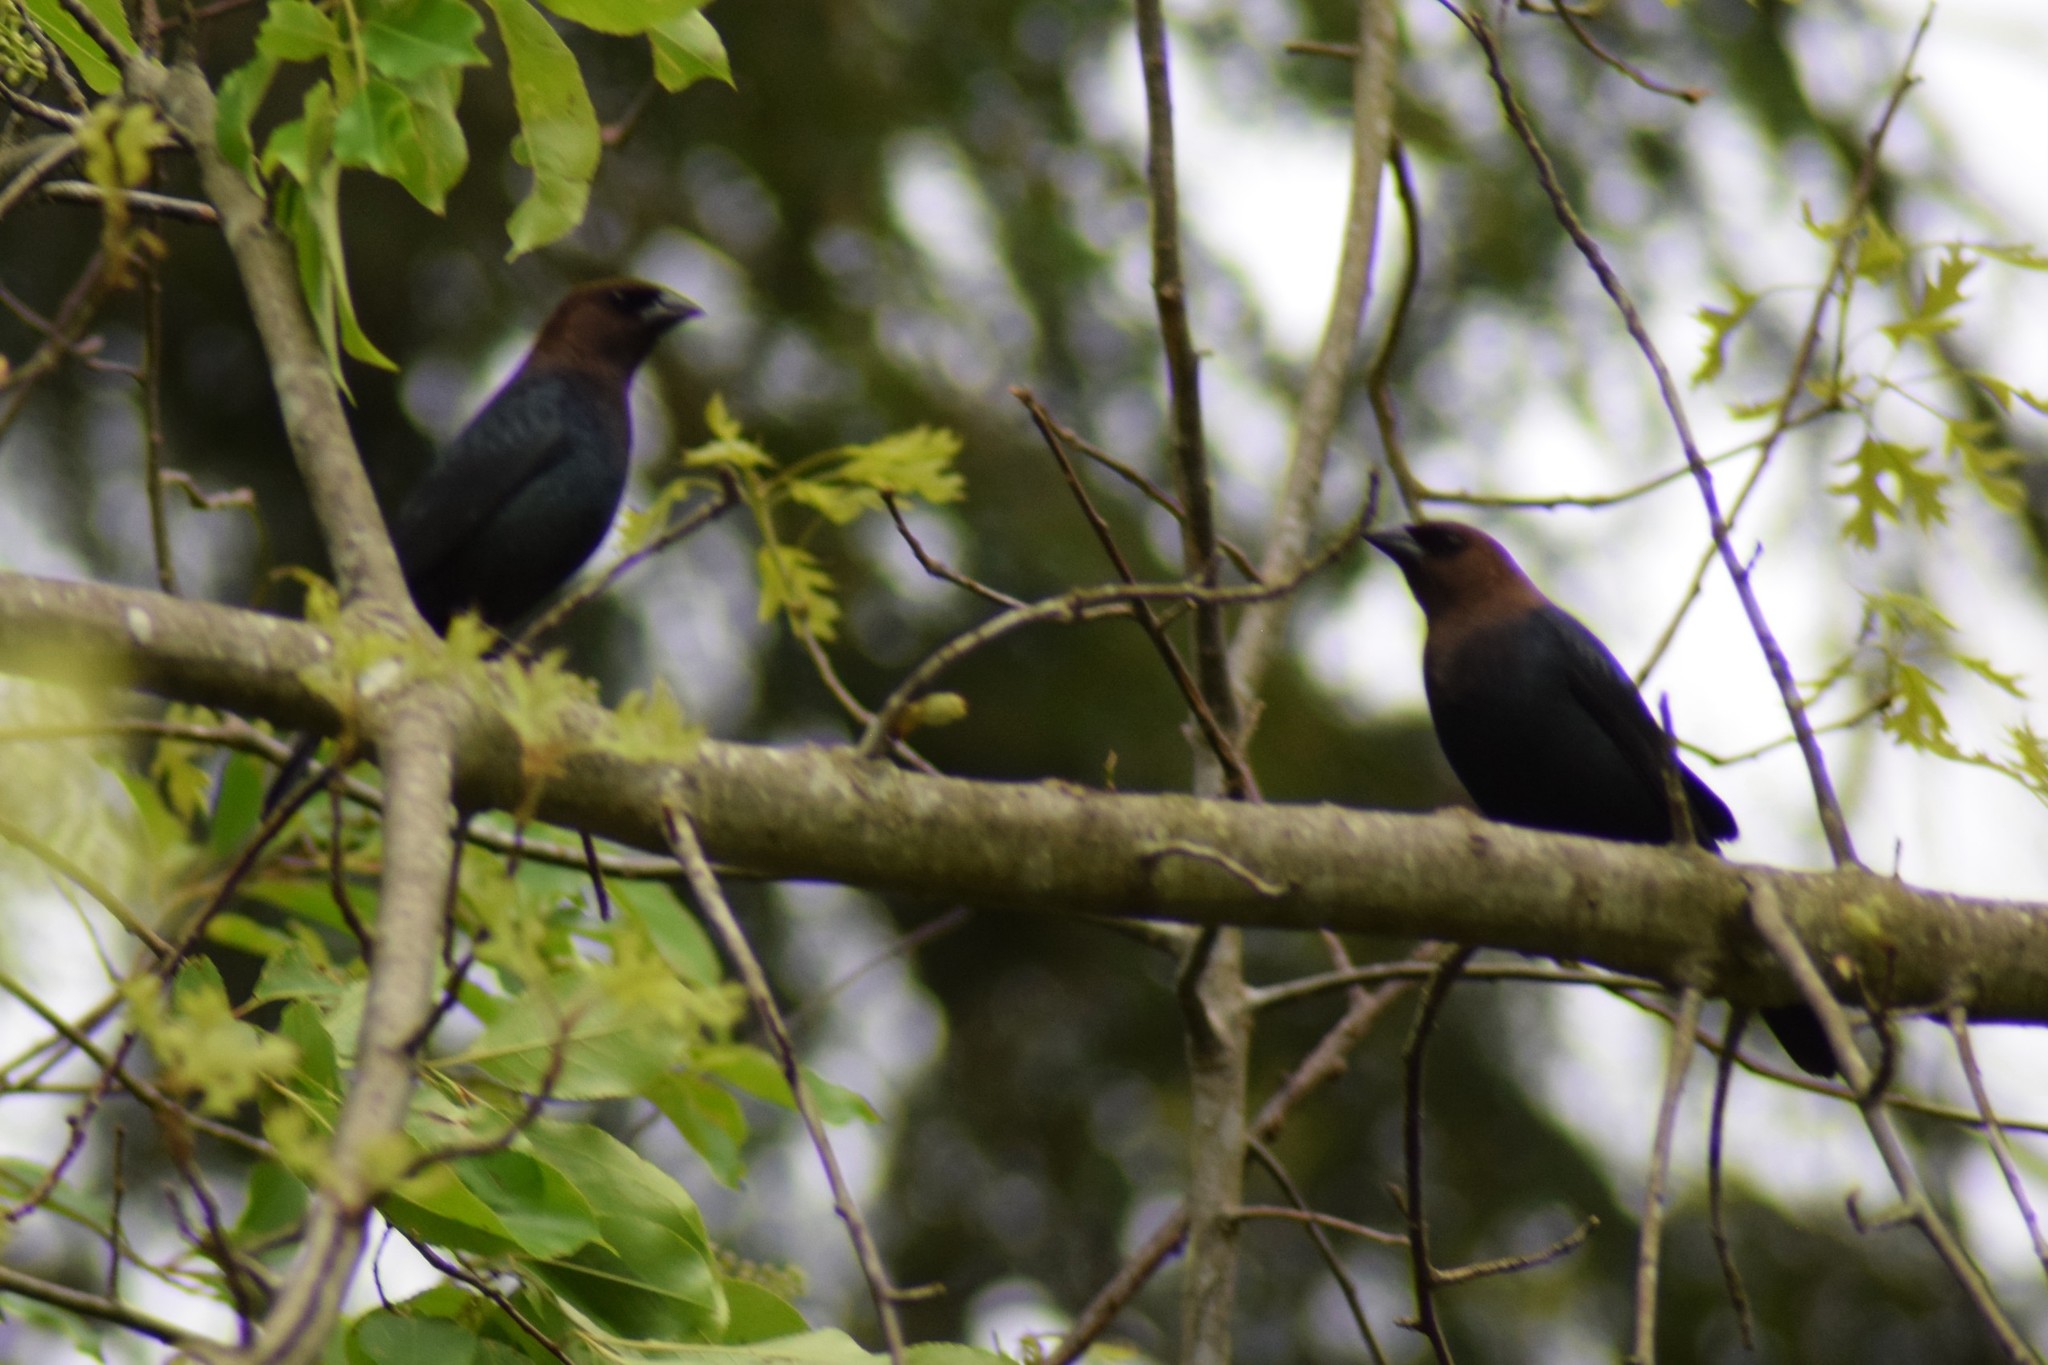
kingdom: Animalia
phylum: Chordata
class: Aves
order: Passeriformes
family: Icteridae
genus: Molothrus
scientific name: Molothrus ater
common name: Brown-headed cowbird
